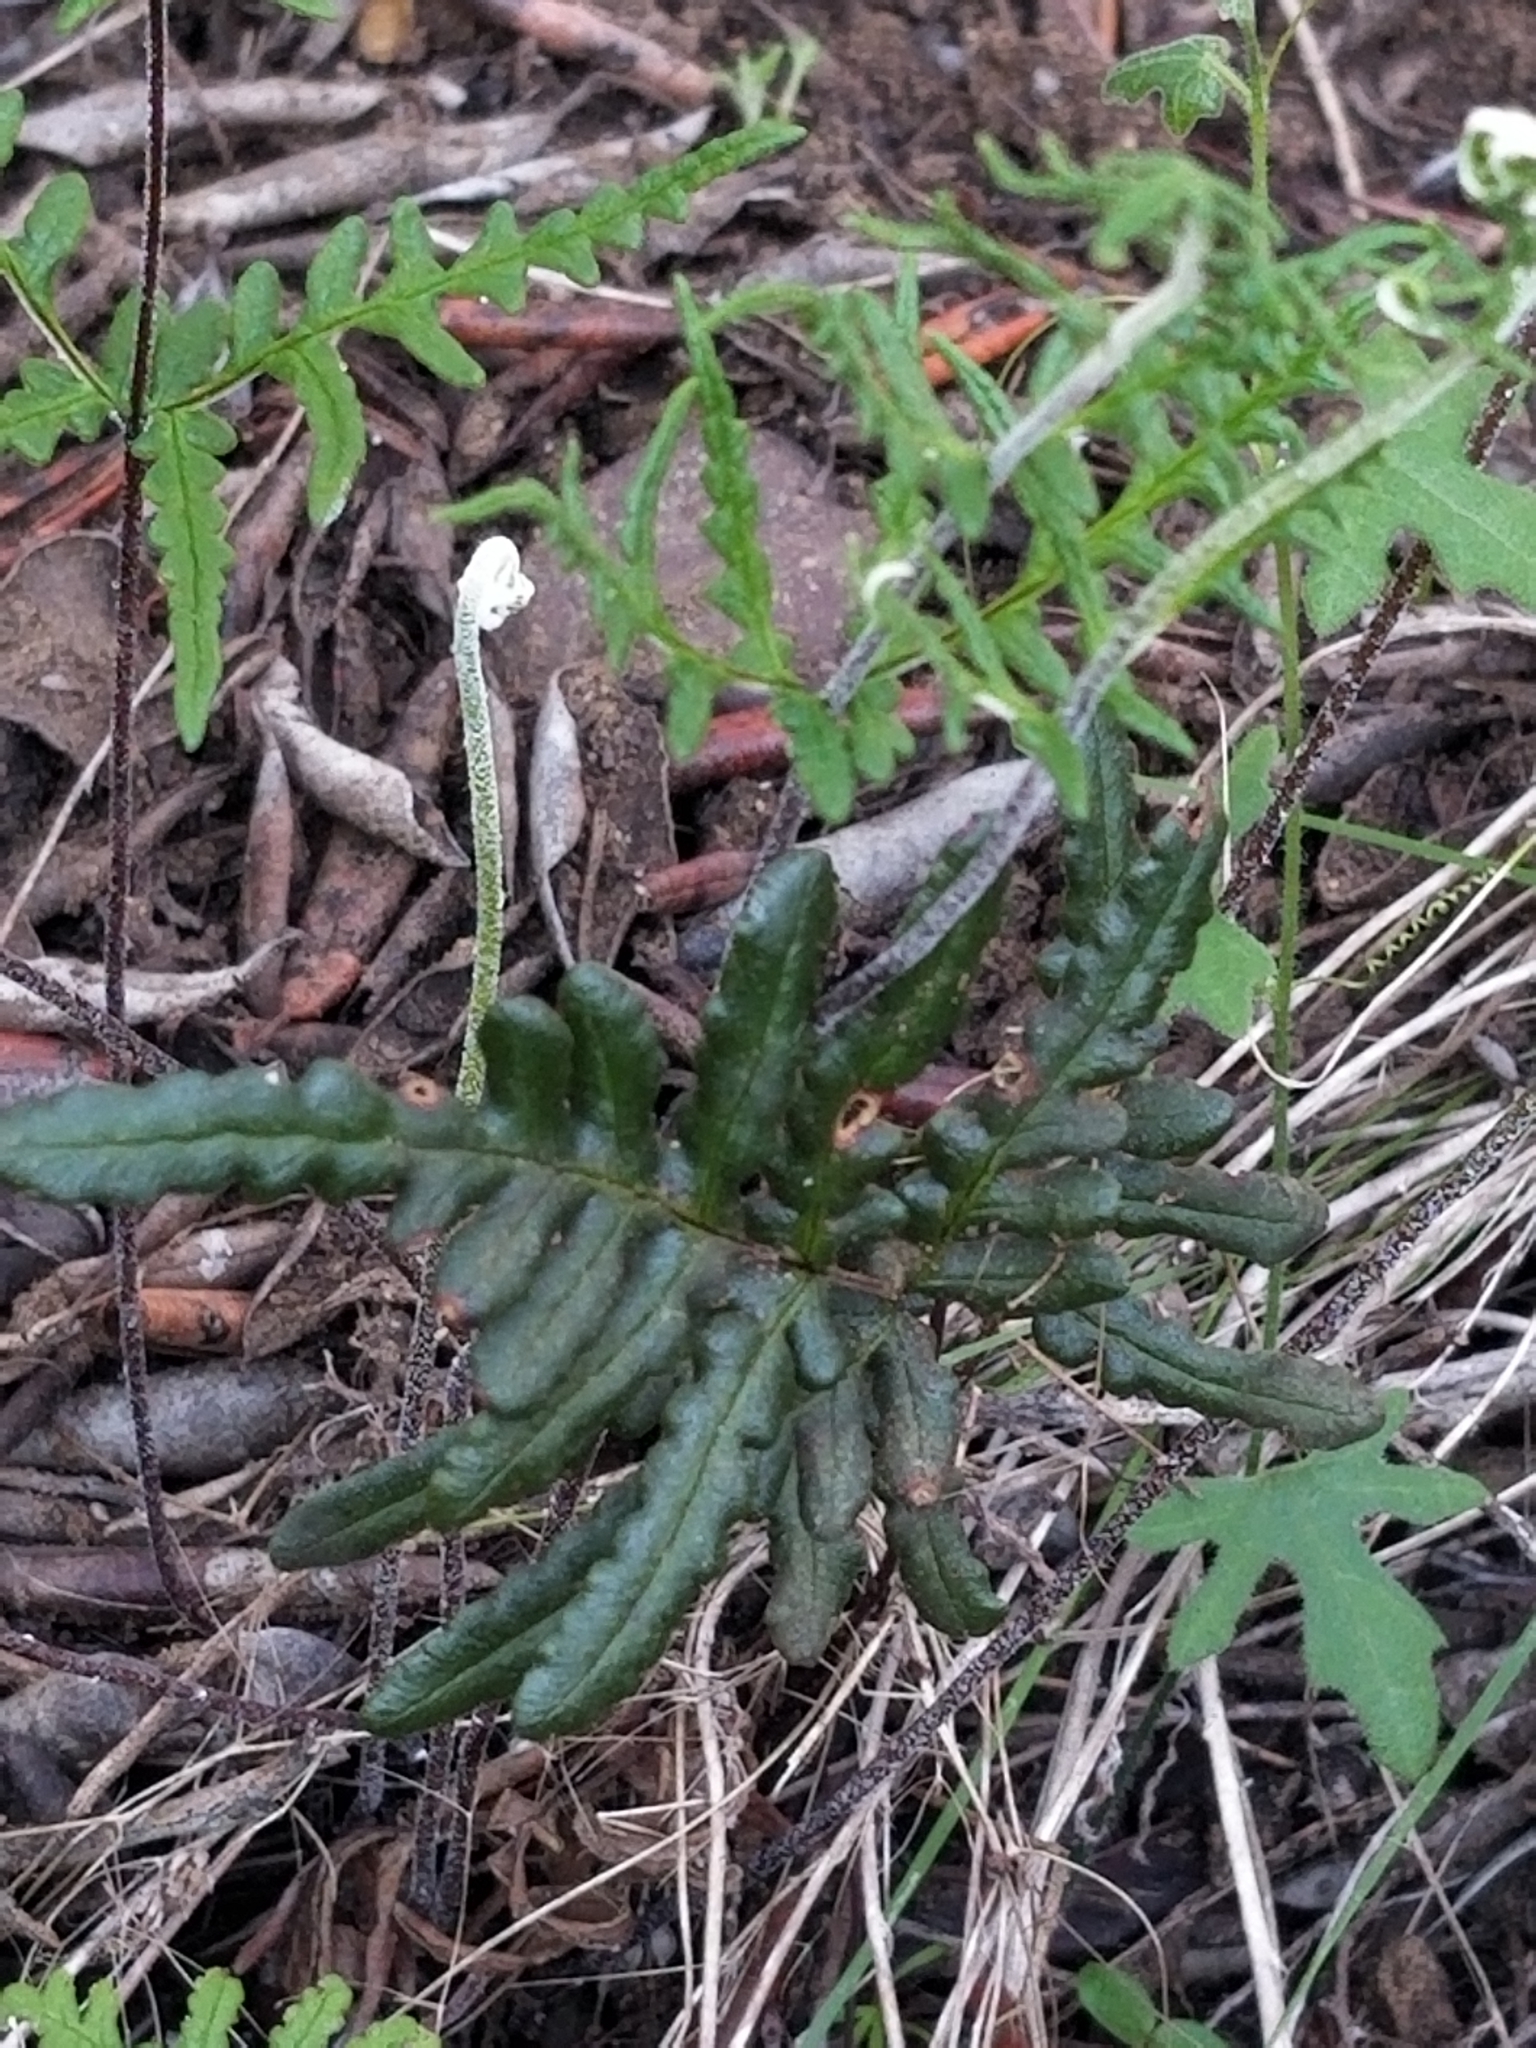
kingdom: Plantae
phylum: Tracheophyta
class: Polypodiopsida
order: Polypodiales
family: Pteridaceae
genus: Pentagramma
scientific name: Pentagramma viscosa
